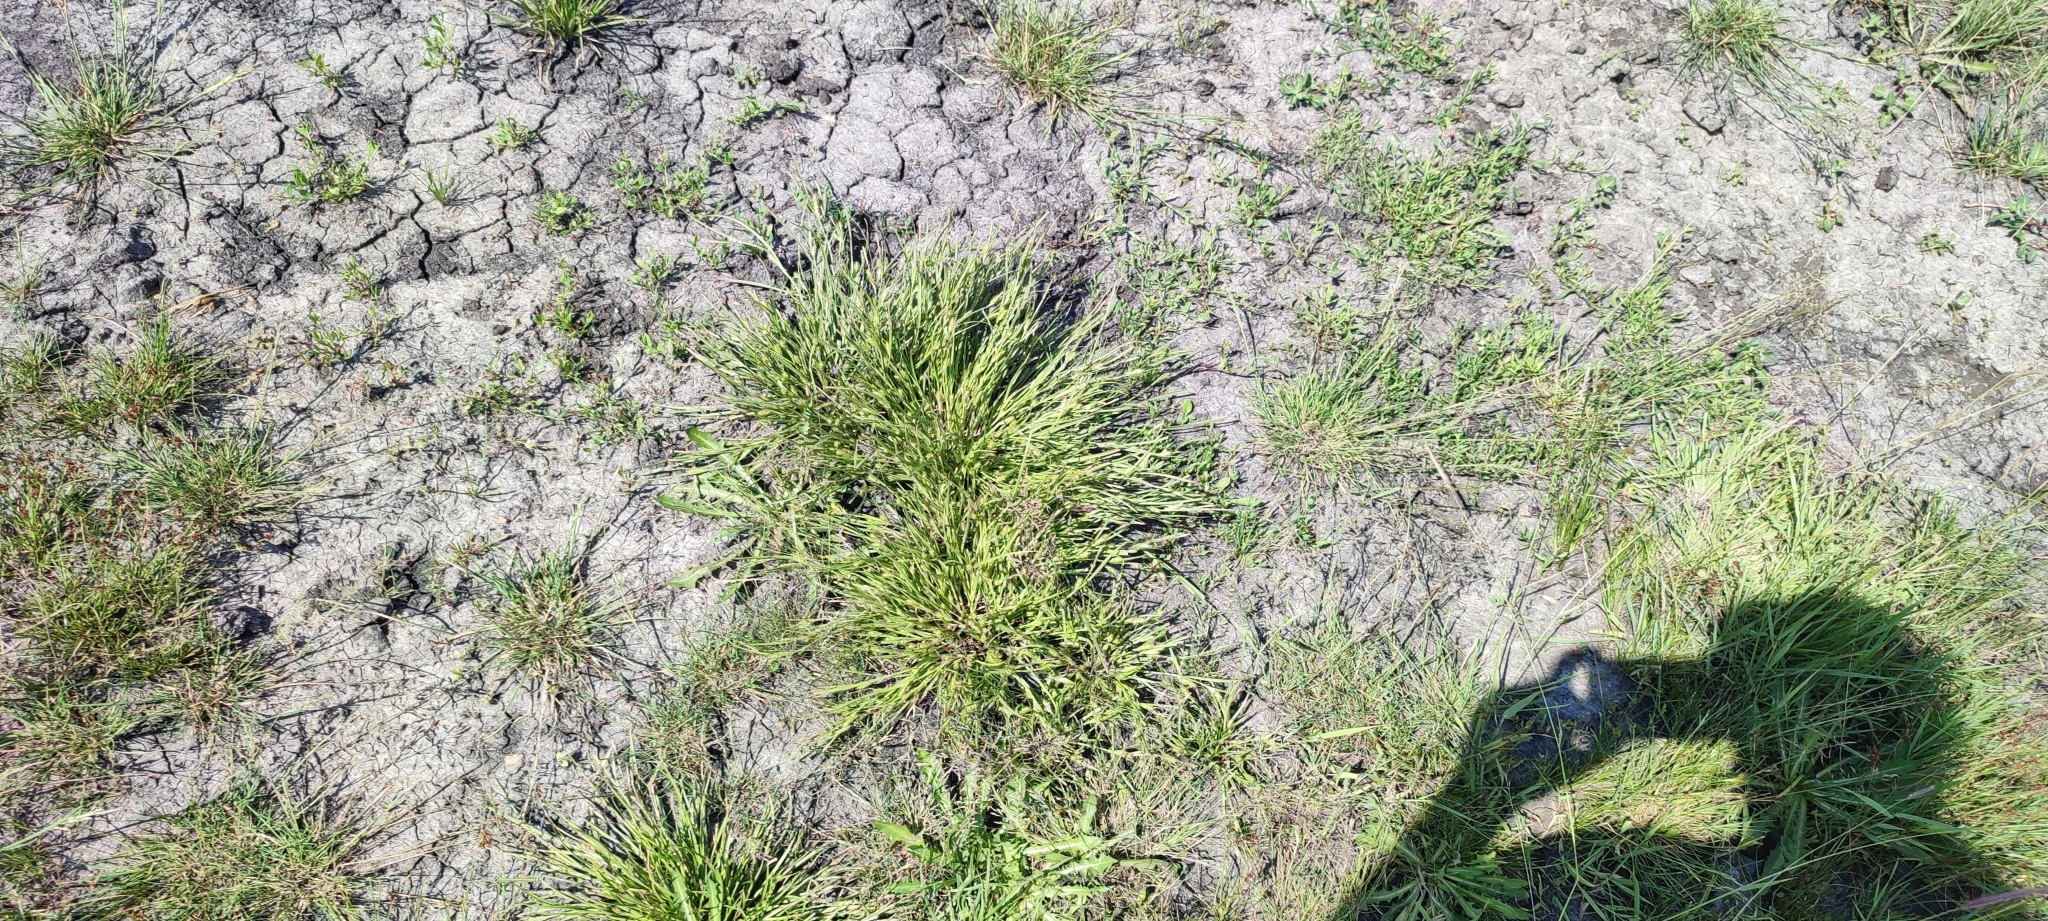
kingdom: Plantae
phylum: Tracheophyta
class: Liliopsida
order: Poales
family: Cyperaceae
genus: Carex
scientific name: Carex secalina
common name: Rye sedge
